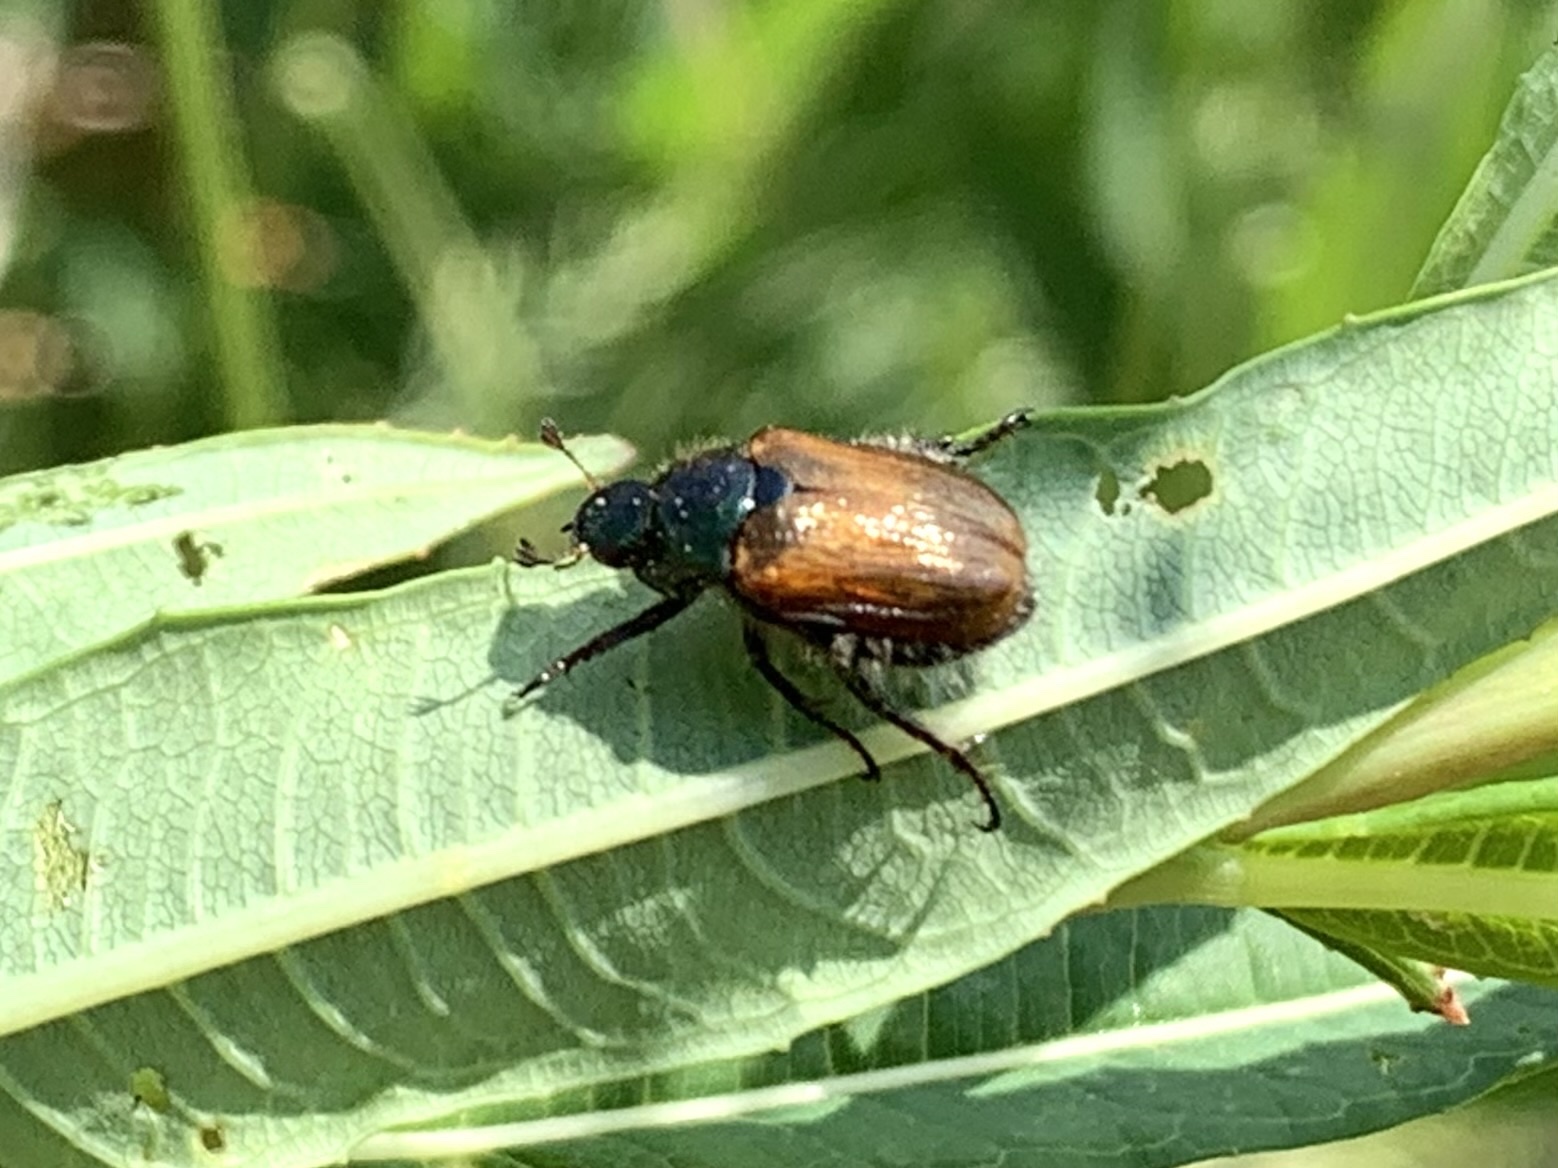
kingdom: Animalia
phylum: Arthropoda
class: Insecta
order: Coleoptera
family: Scarabaeidae
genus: Phyllopertha
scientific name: Phyllopertha horticola
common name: Garden chafer
